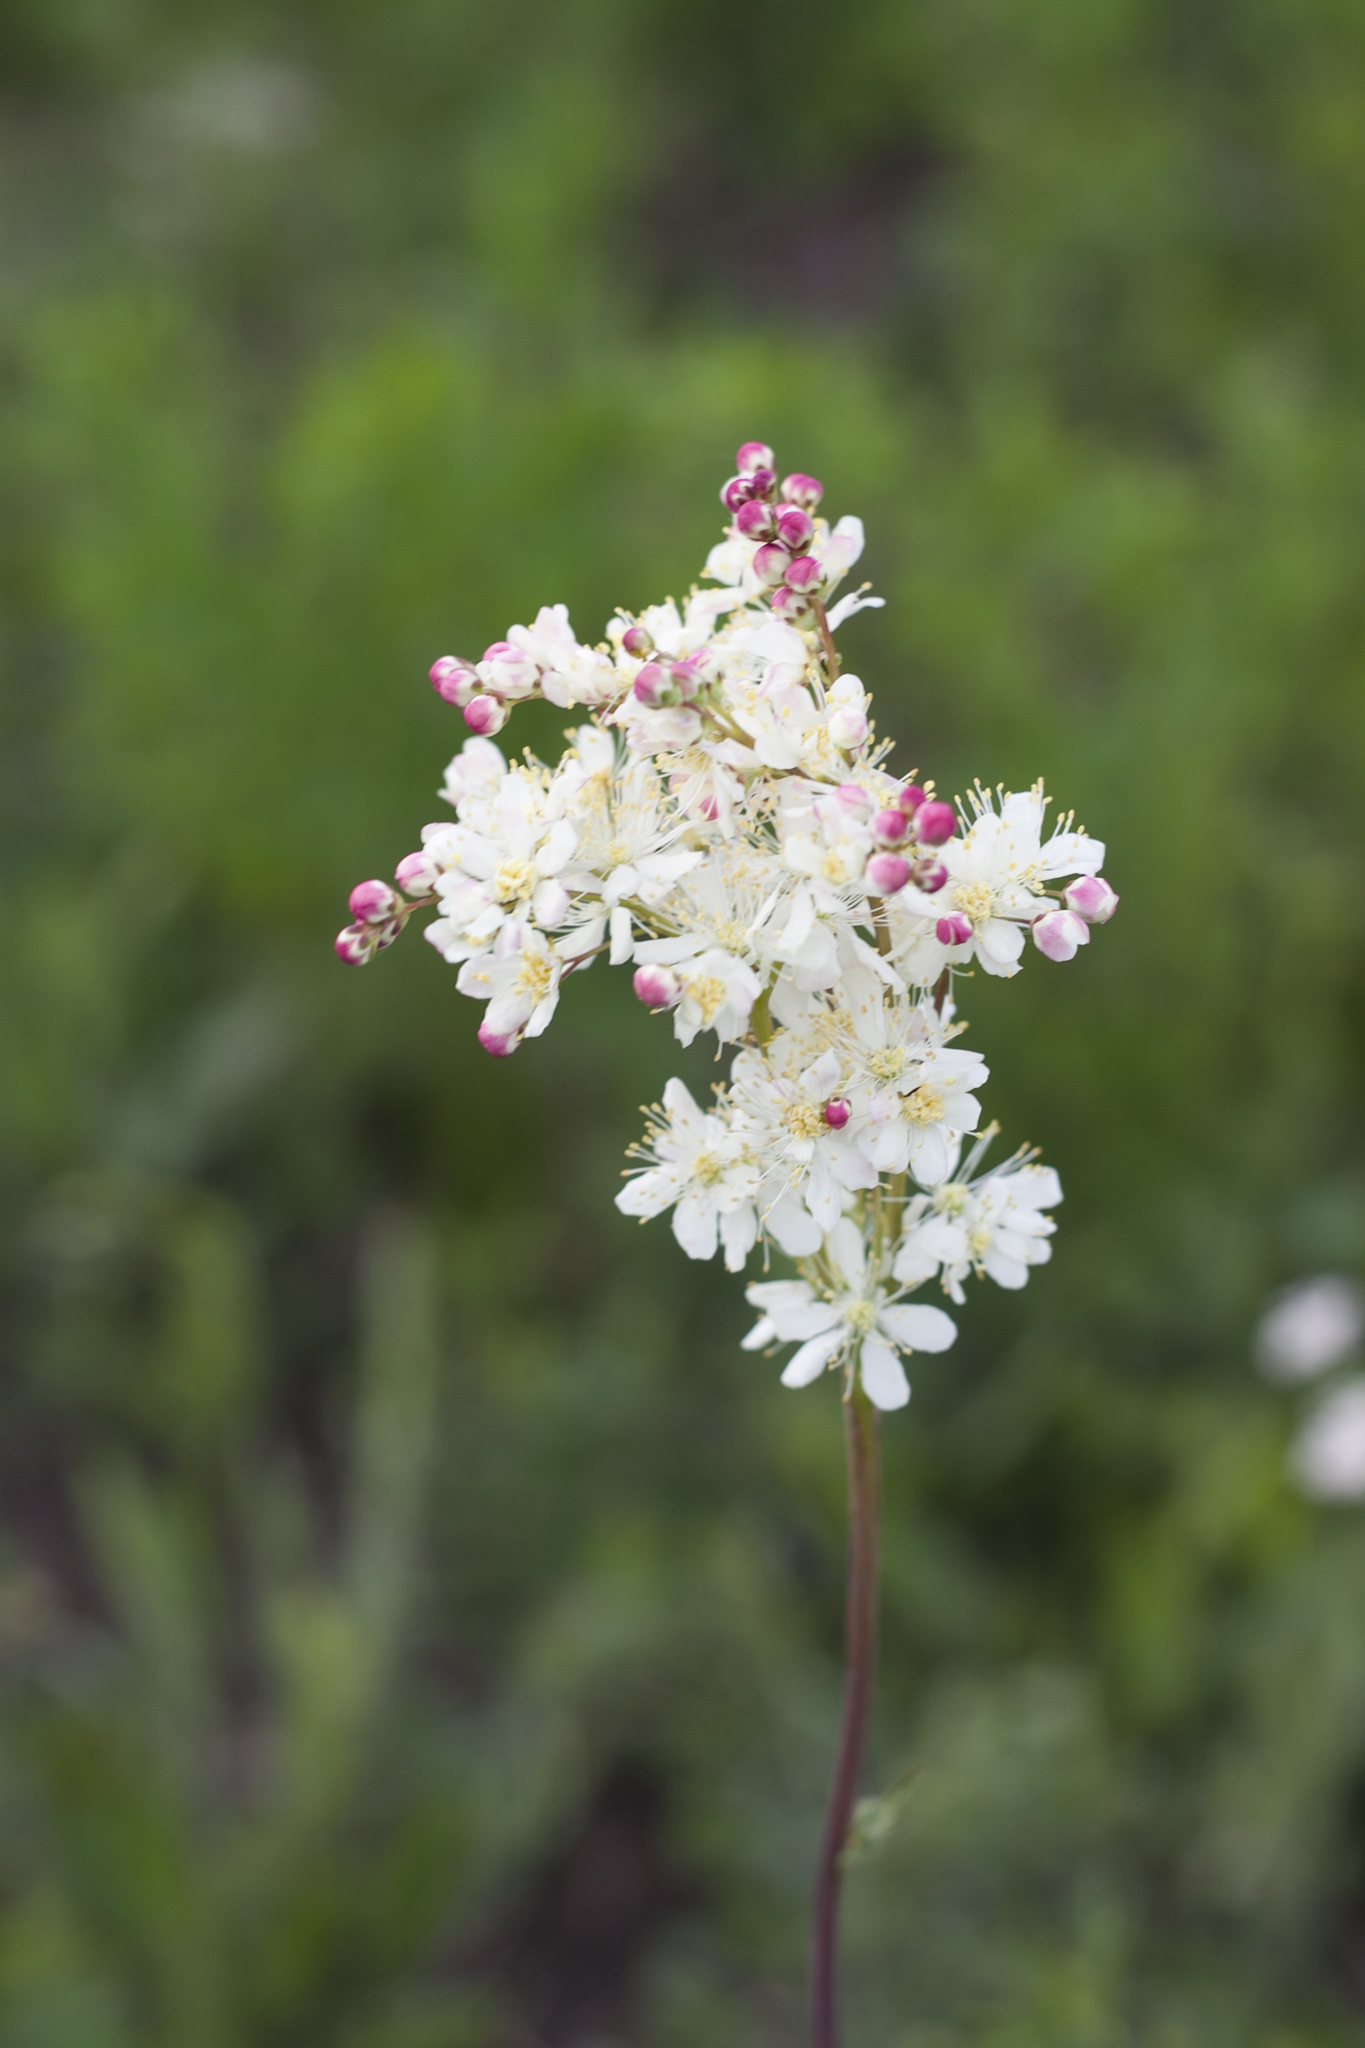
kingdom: Plantae
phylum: Tracheophyta
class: Magnoliopsida
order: Rosales
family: Rosaceae
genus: Filipendula
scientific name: Filipendula vulgaris
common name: Dropwort
